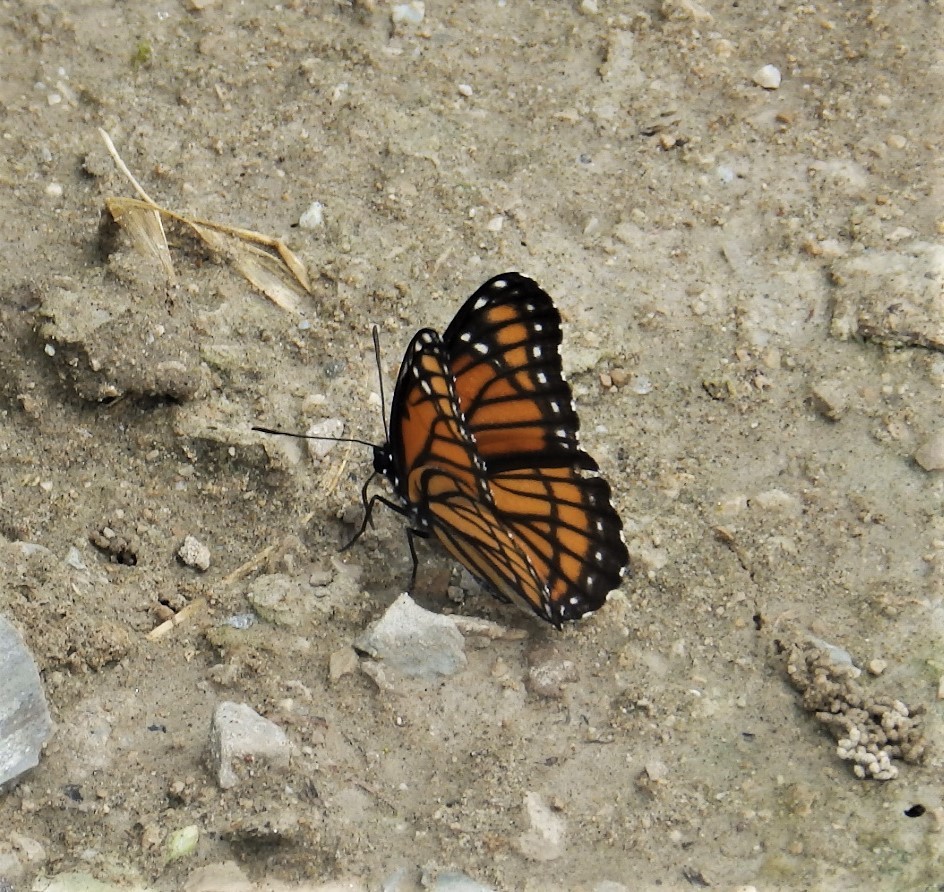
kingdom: Animalia
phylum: Arthropoda
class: Insecta
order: Lepidoptera
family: Nymphalidae
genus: Limenitis
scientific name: Limenitis archippus
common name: Viceroy
